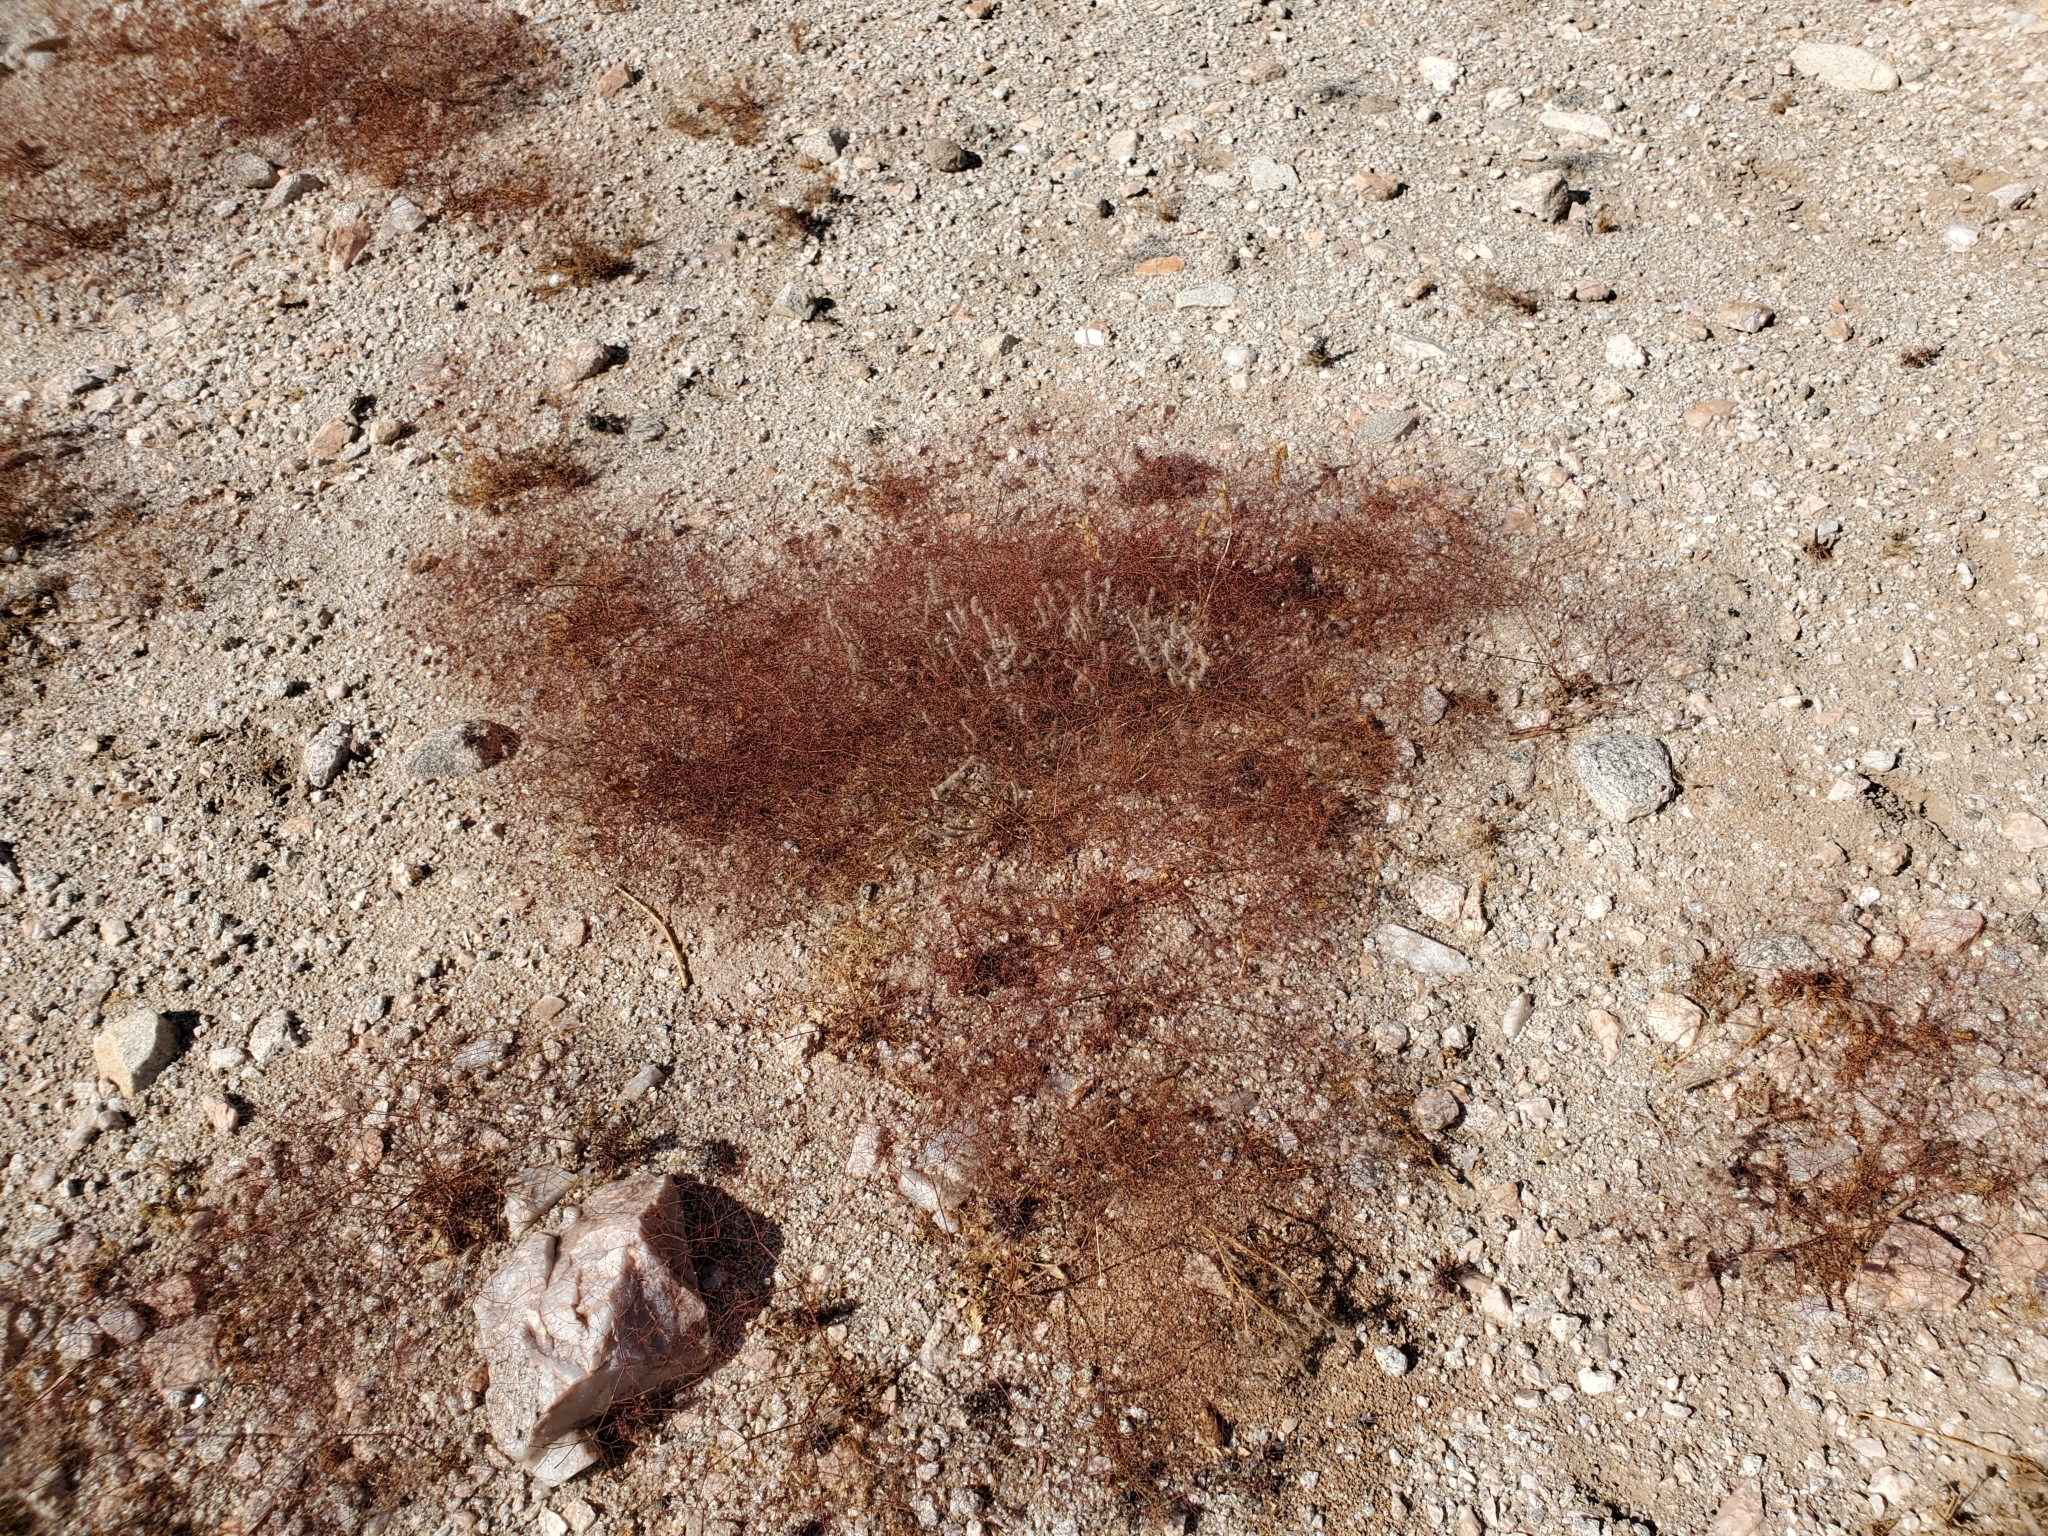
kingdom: Plantae
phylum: Tracheophyta
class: Magnoliopsida
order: Caryophyllales
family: Polygonaceae
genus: Eriogonum
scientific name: Eriogonum trichopes
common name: Little desert trumpet
